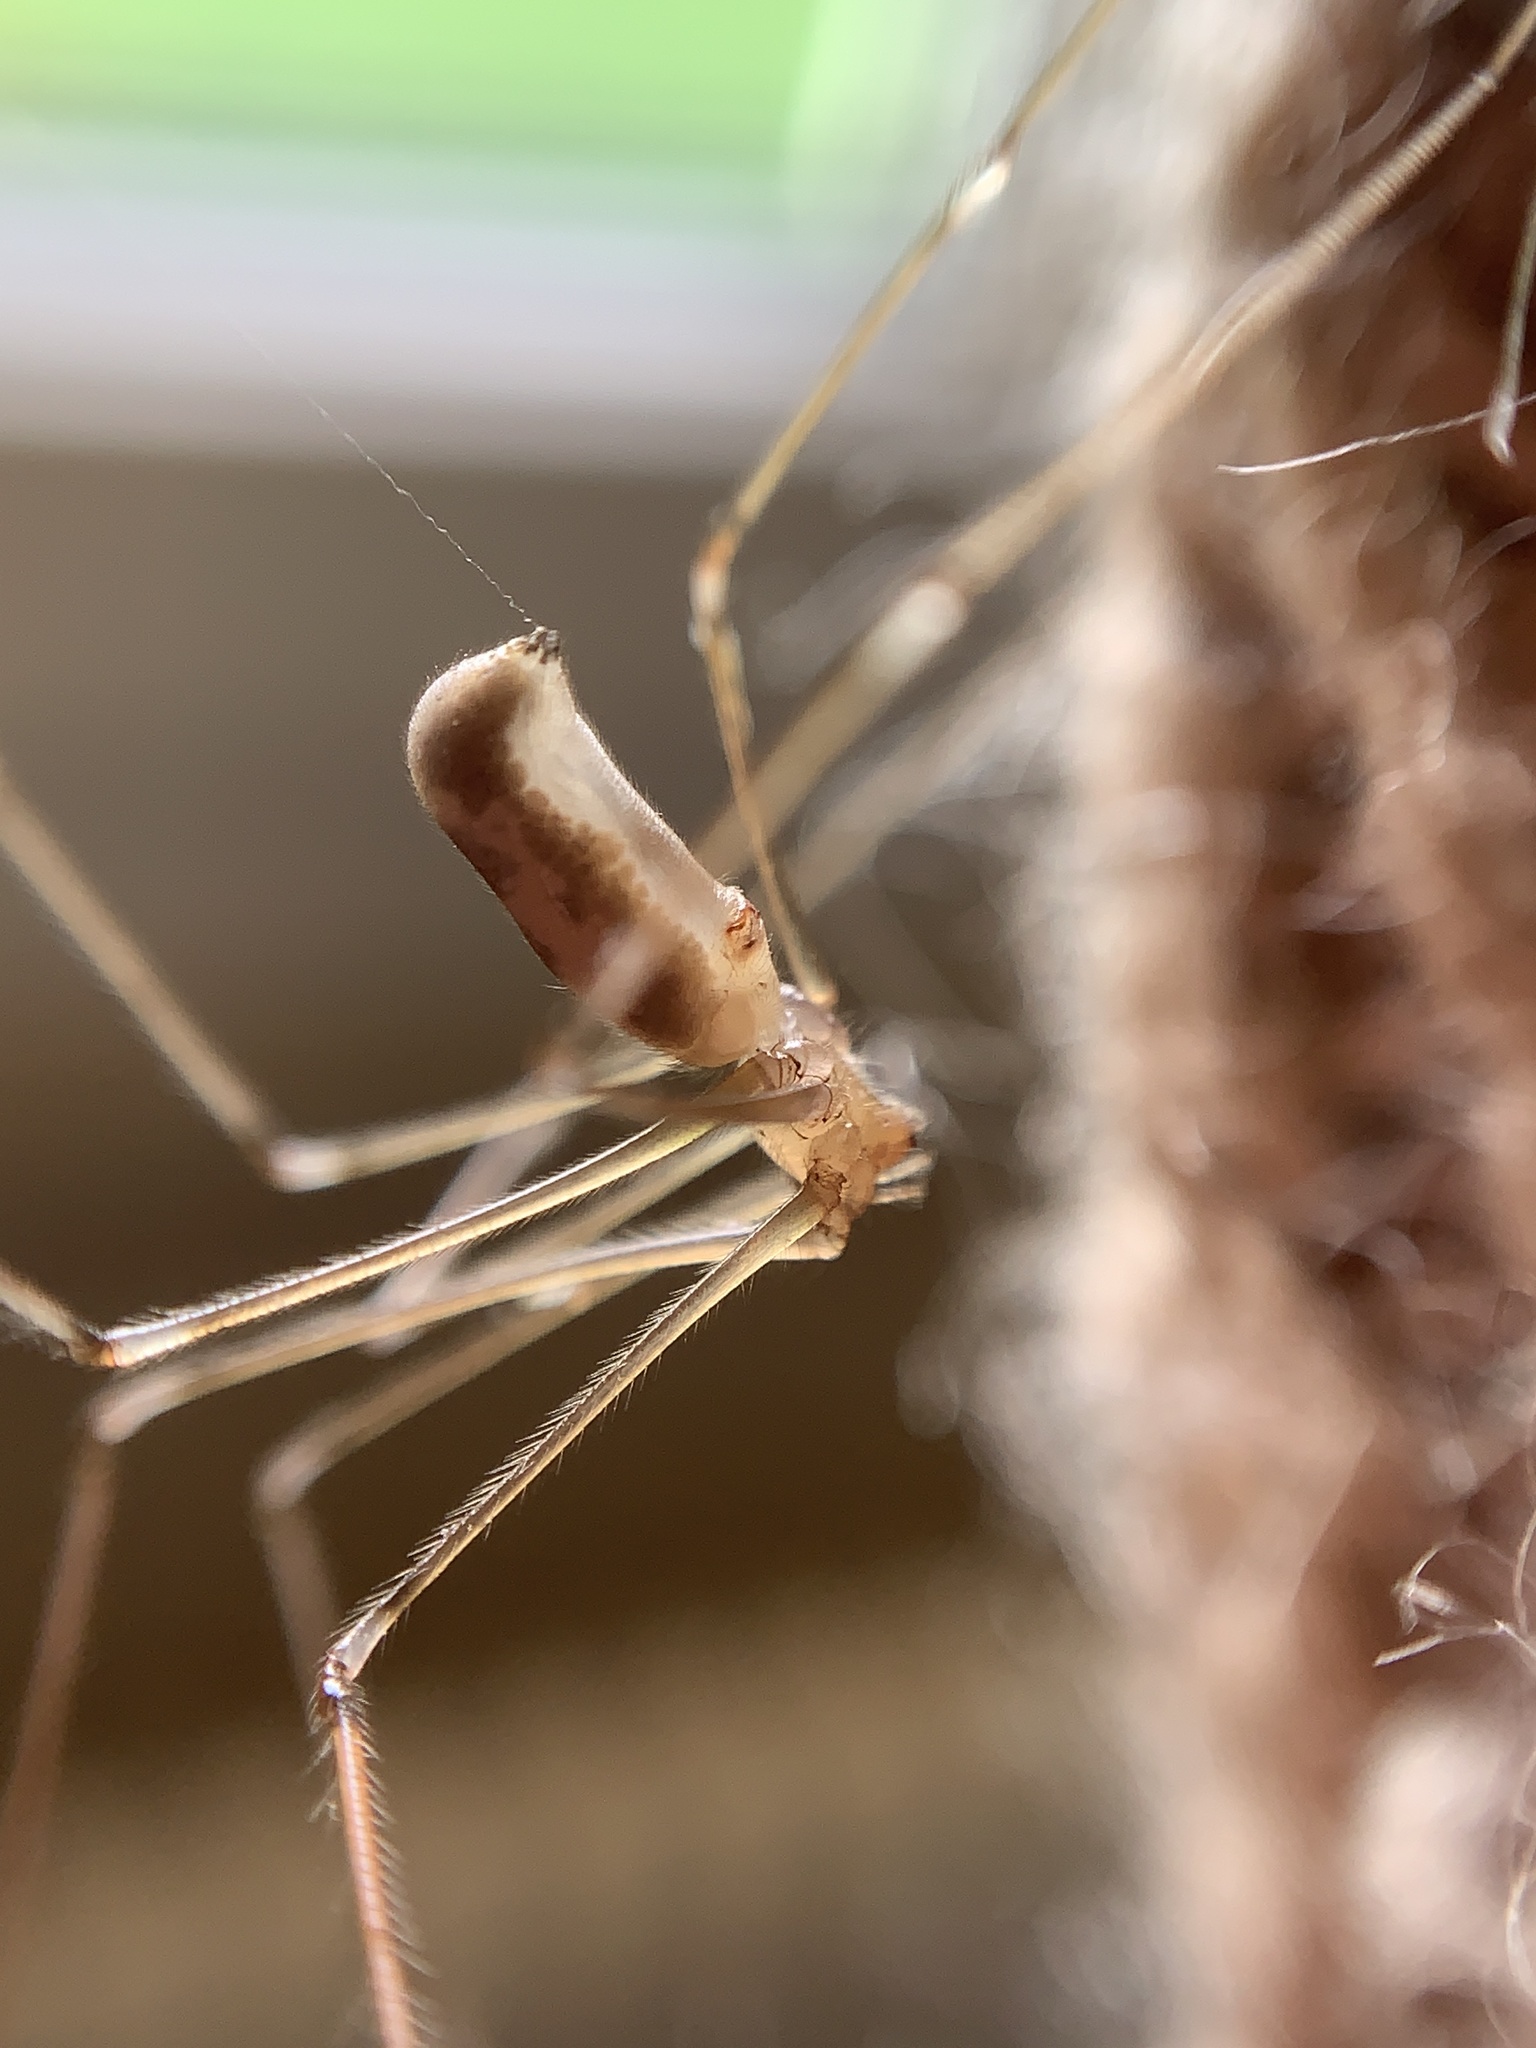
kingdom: Animalia
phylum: Arthropoda
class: Arachnida
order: Araneae
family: Pholcidae
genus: Pholcus
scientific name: Pholcus phalangioides
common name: Longbodied cellar spider
